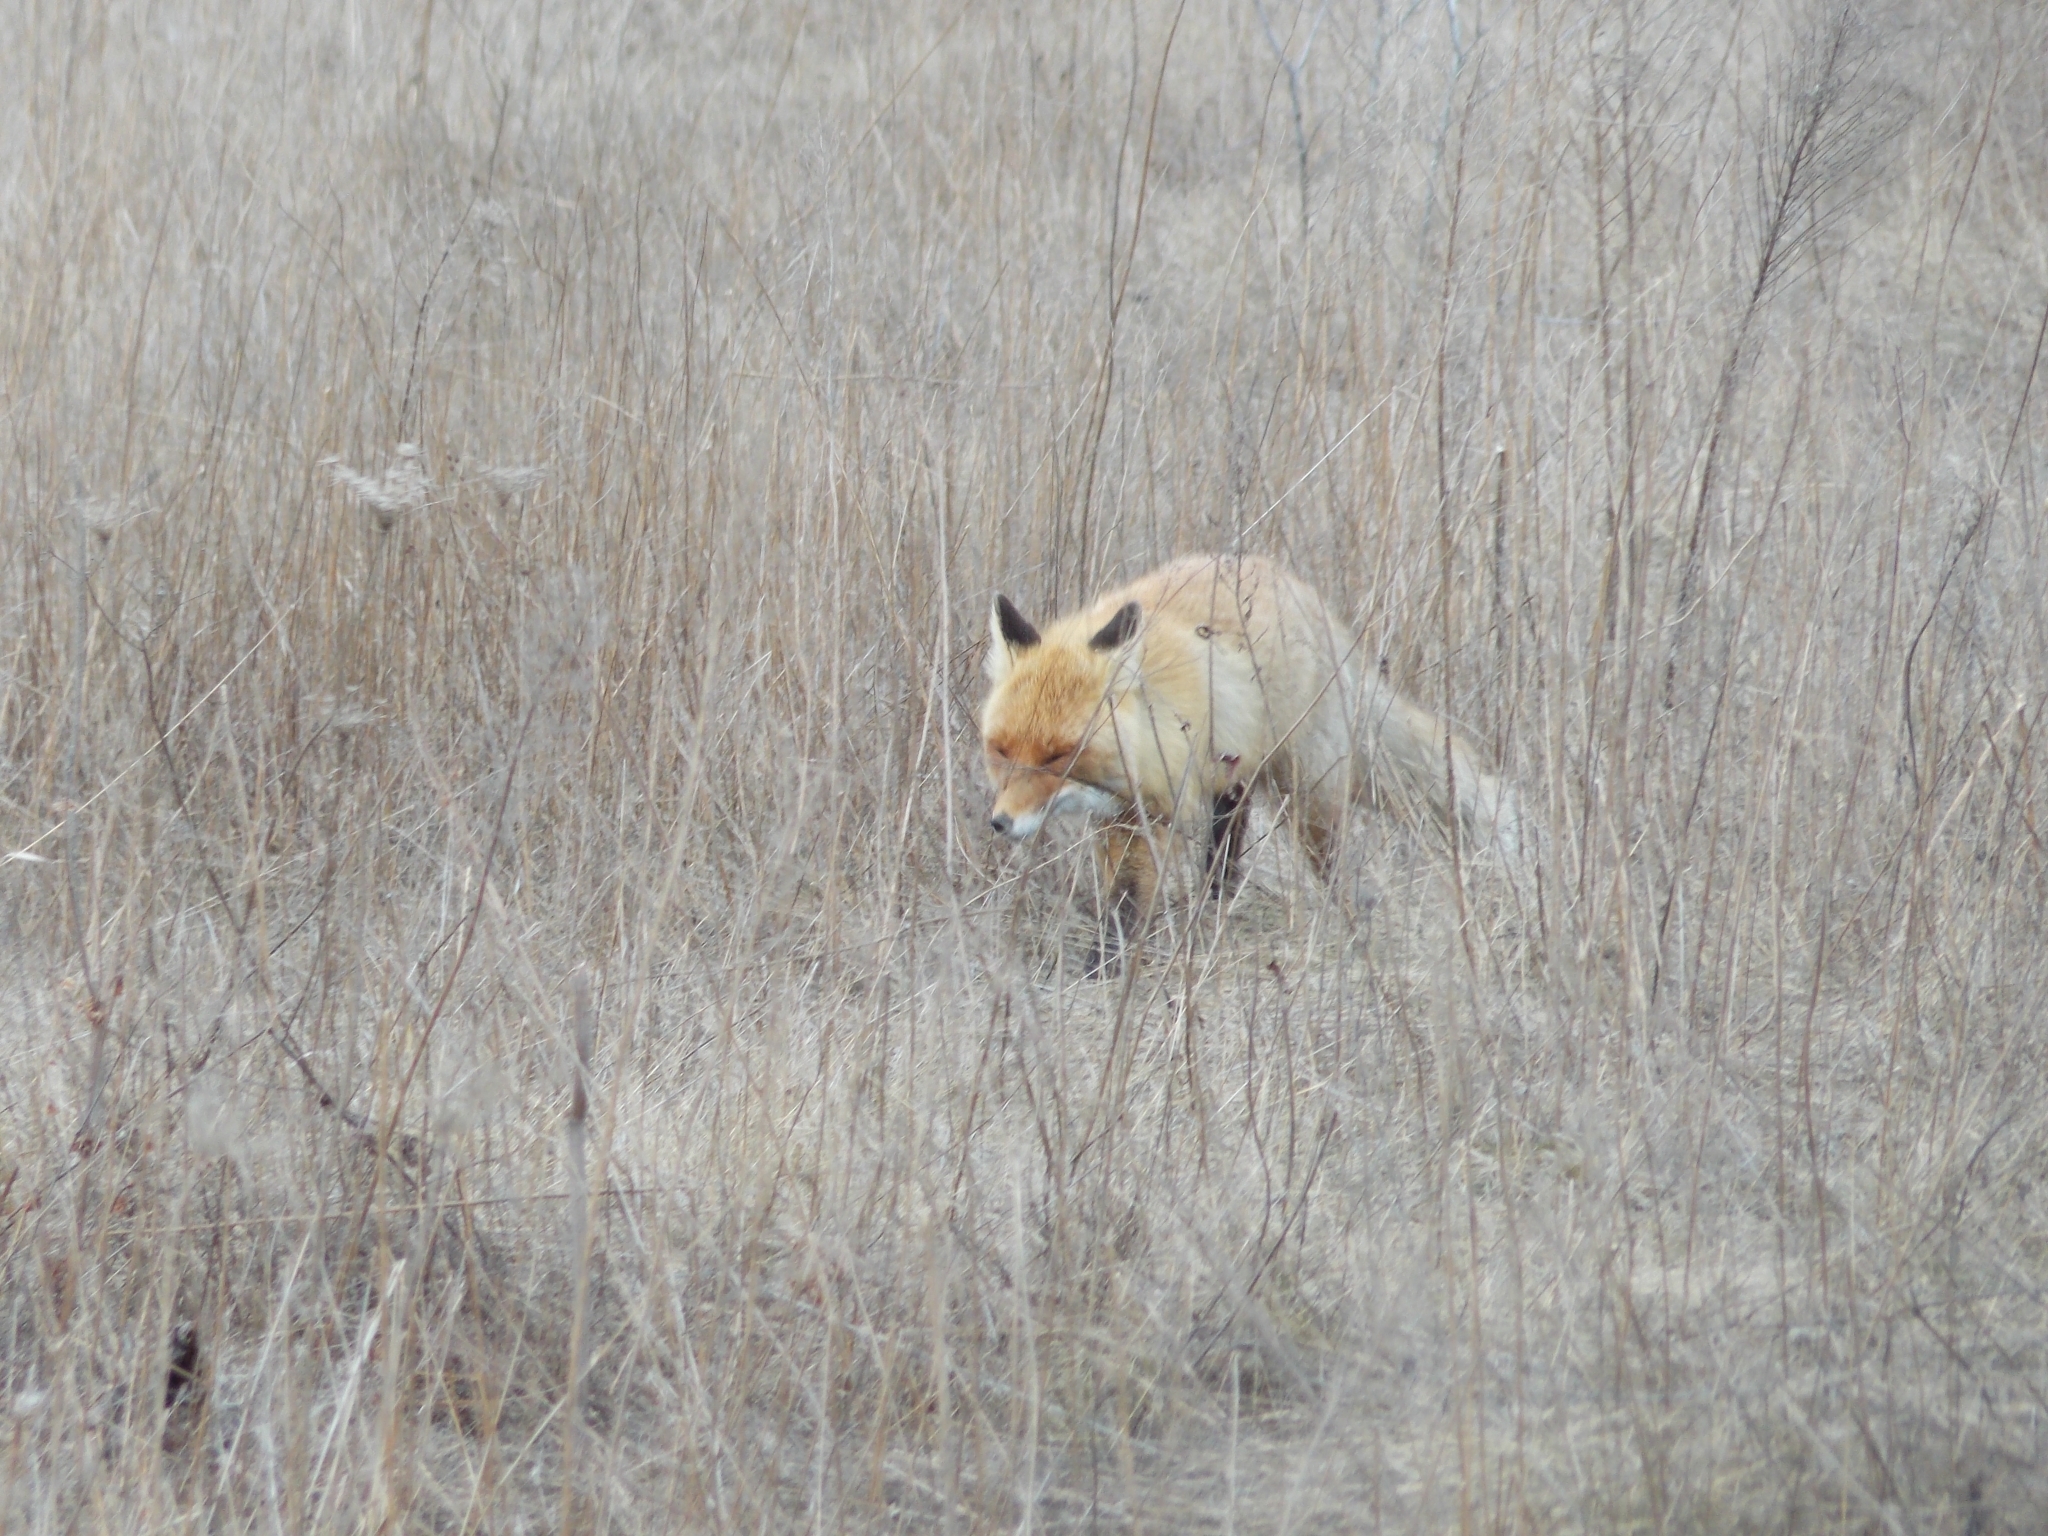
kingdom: Animalia
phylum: Chordata
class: Mammalia
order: Carnivora
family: Canidae
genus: Vulpes
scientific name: Vulpes vulpes
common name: Red fox
